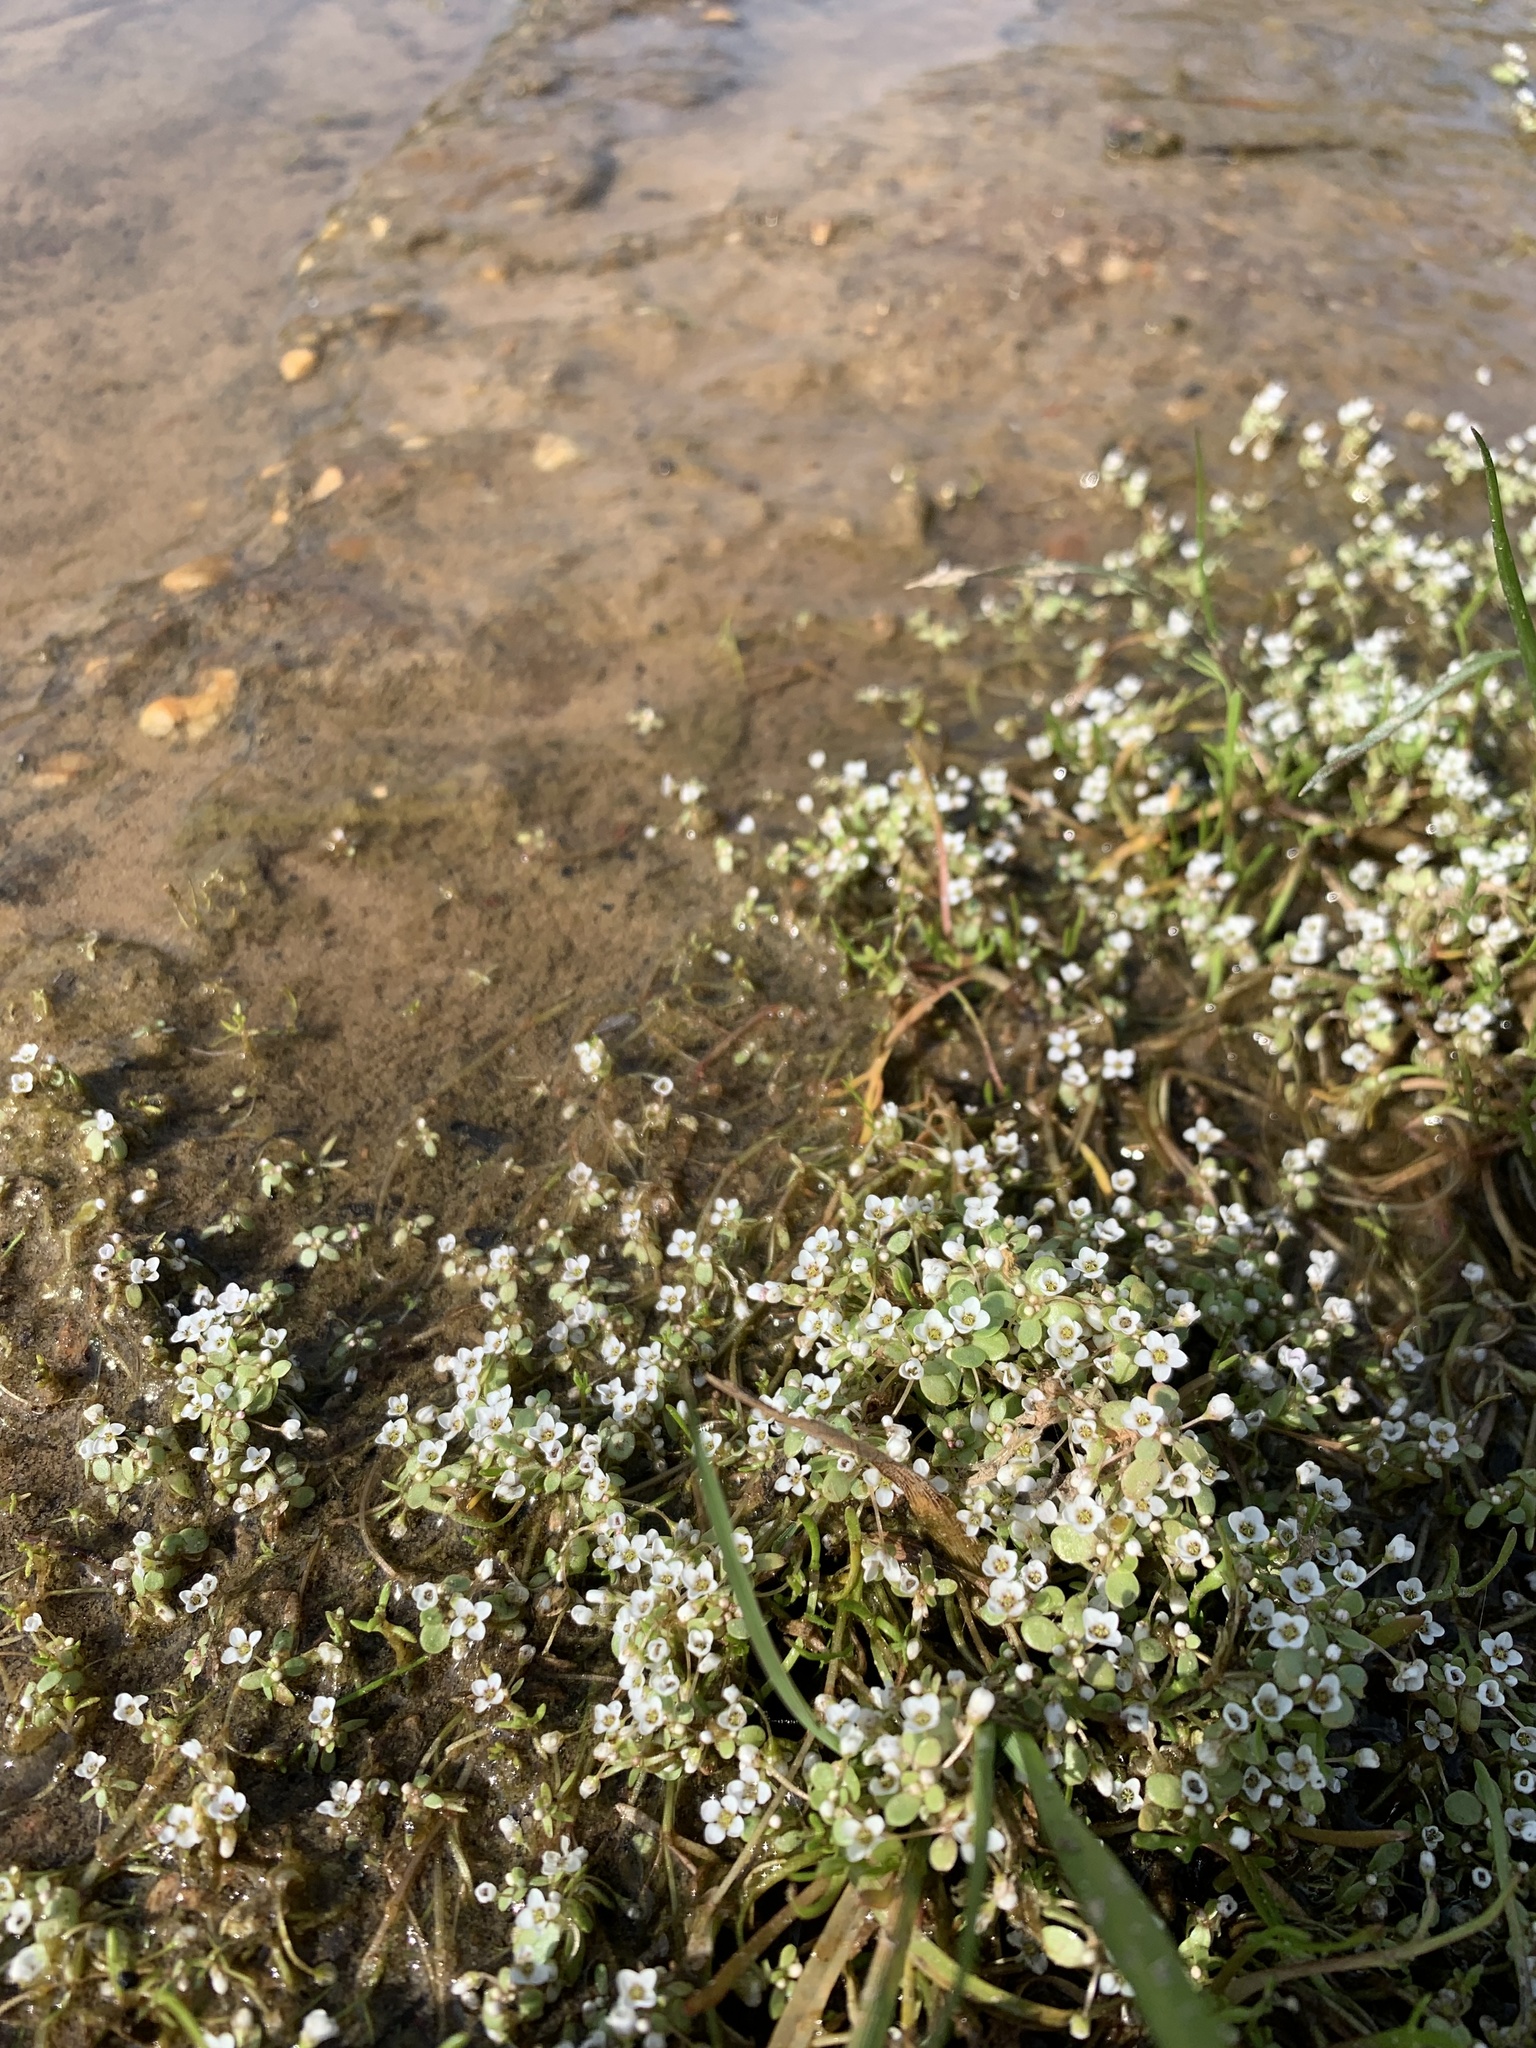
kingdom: Plantae
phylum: Tracheophyta
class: Magnoliopsida
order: Saxifragales
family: Crassulaceae
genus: Crassula
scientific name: Crassula natans
